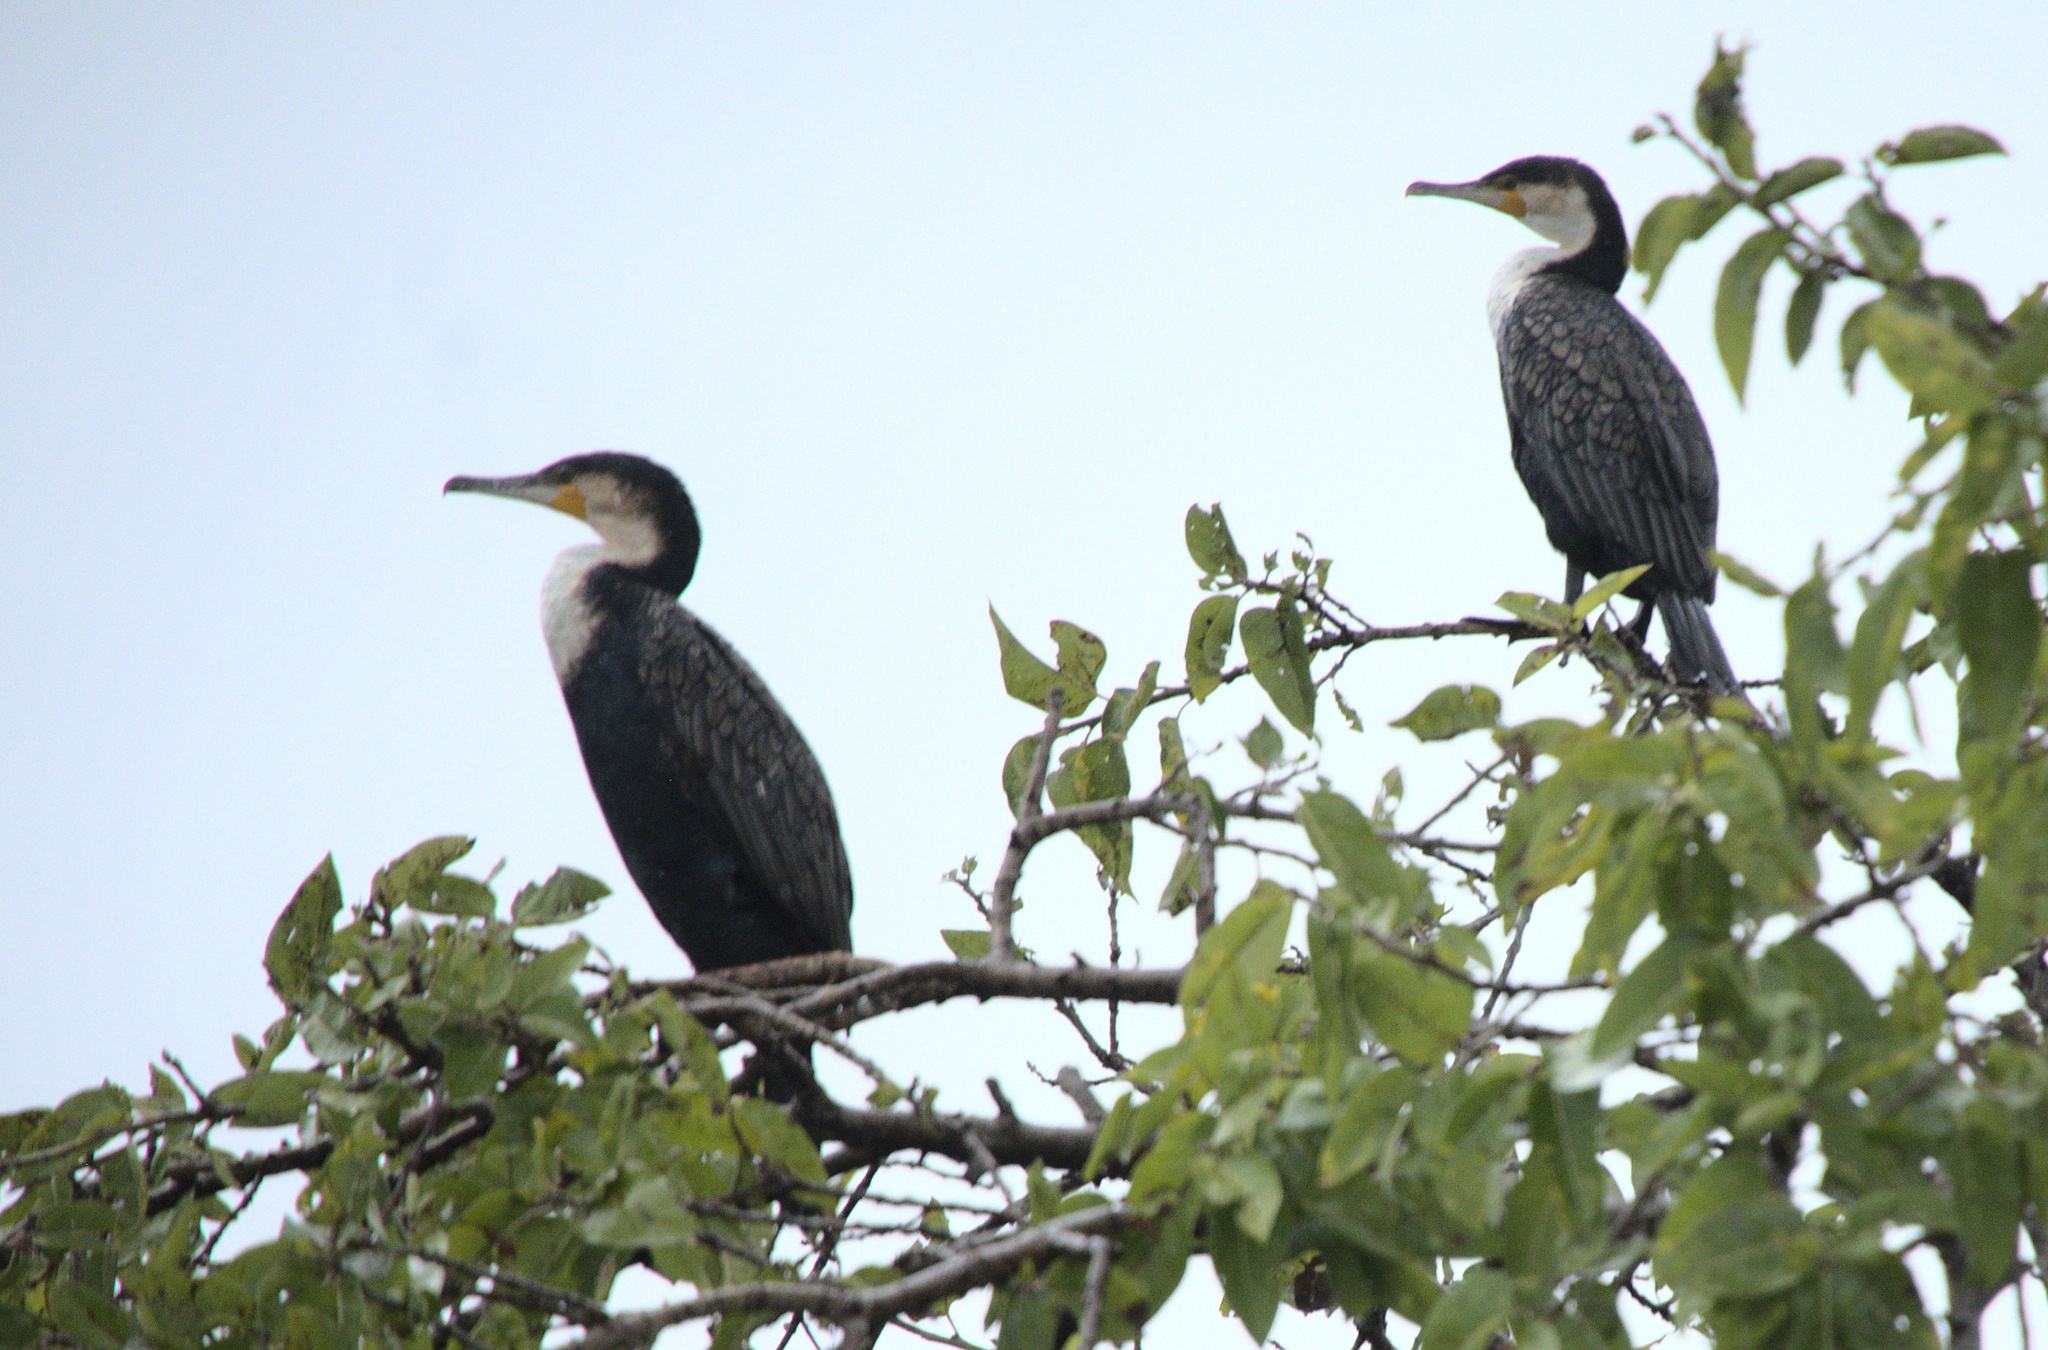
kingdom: Animalia
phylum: Chordata
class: Aves
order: Suliformes
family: Phalacrocoracidae
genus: Phalacrocorax
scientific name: Phalacrocorax carbo
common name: Great cormorant
